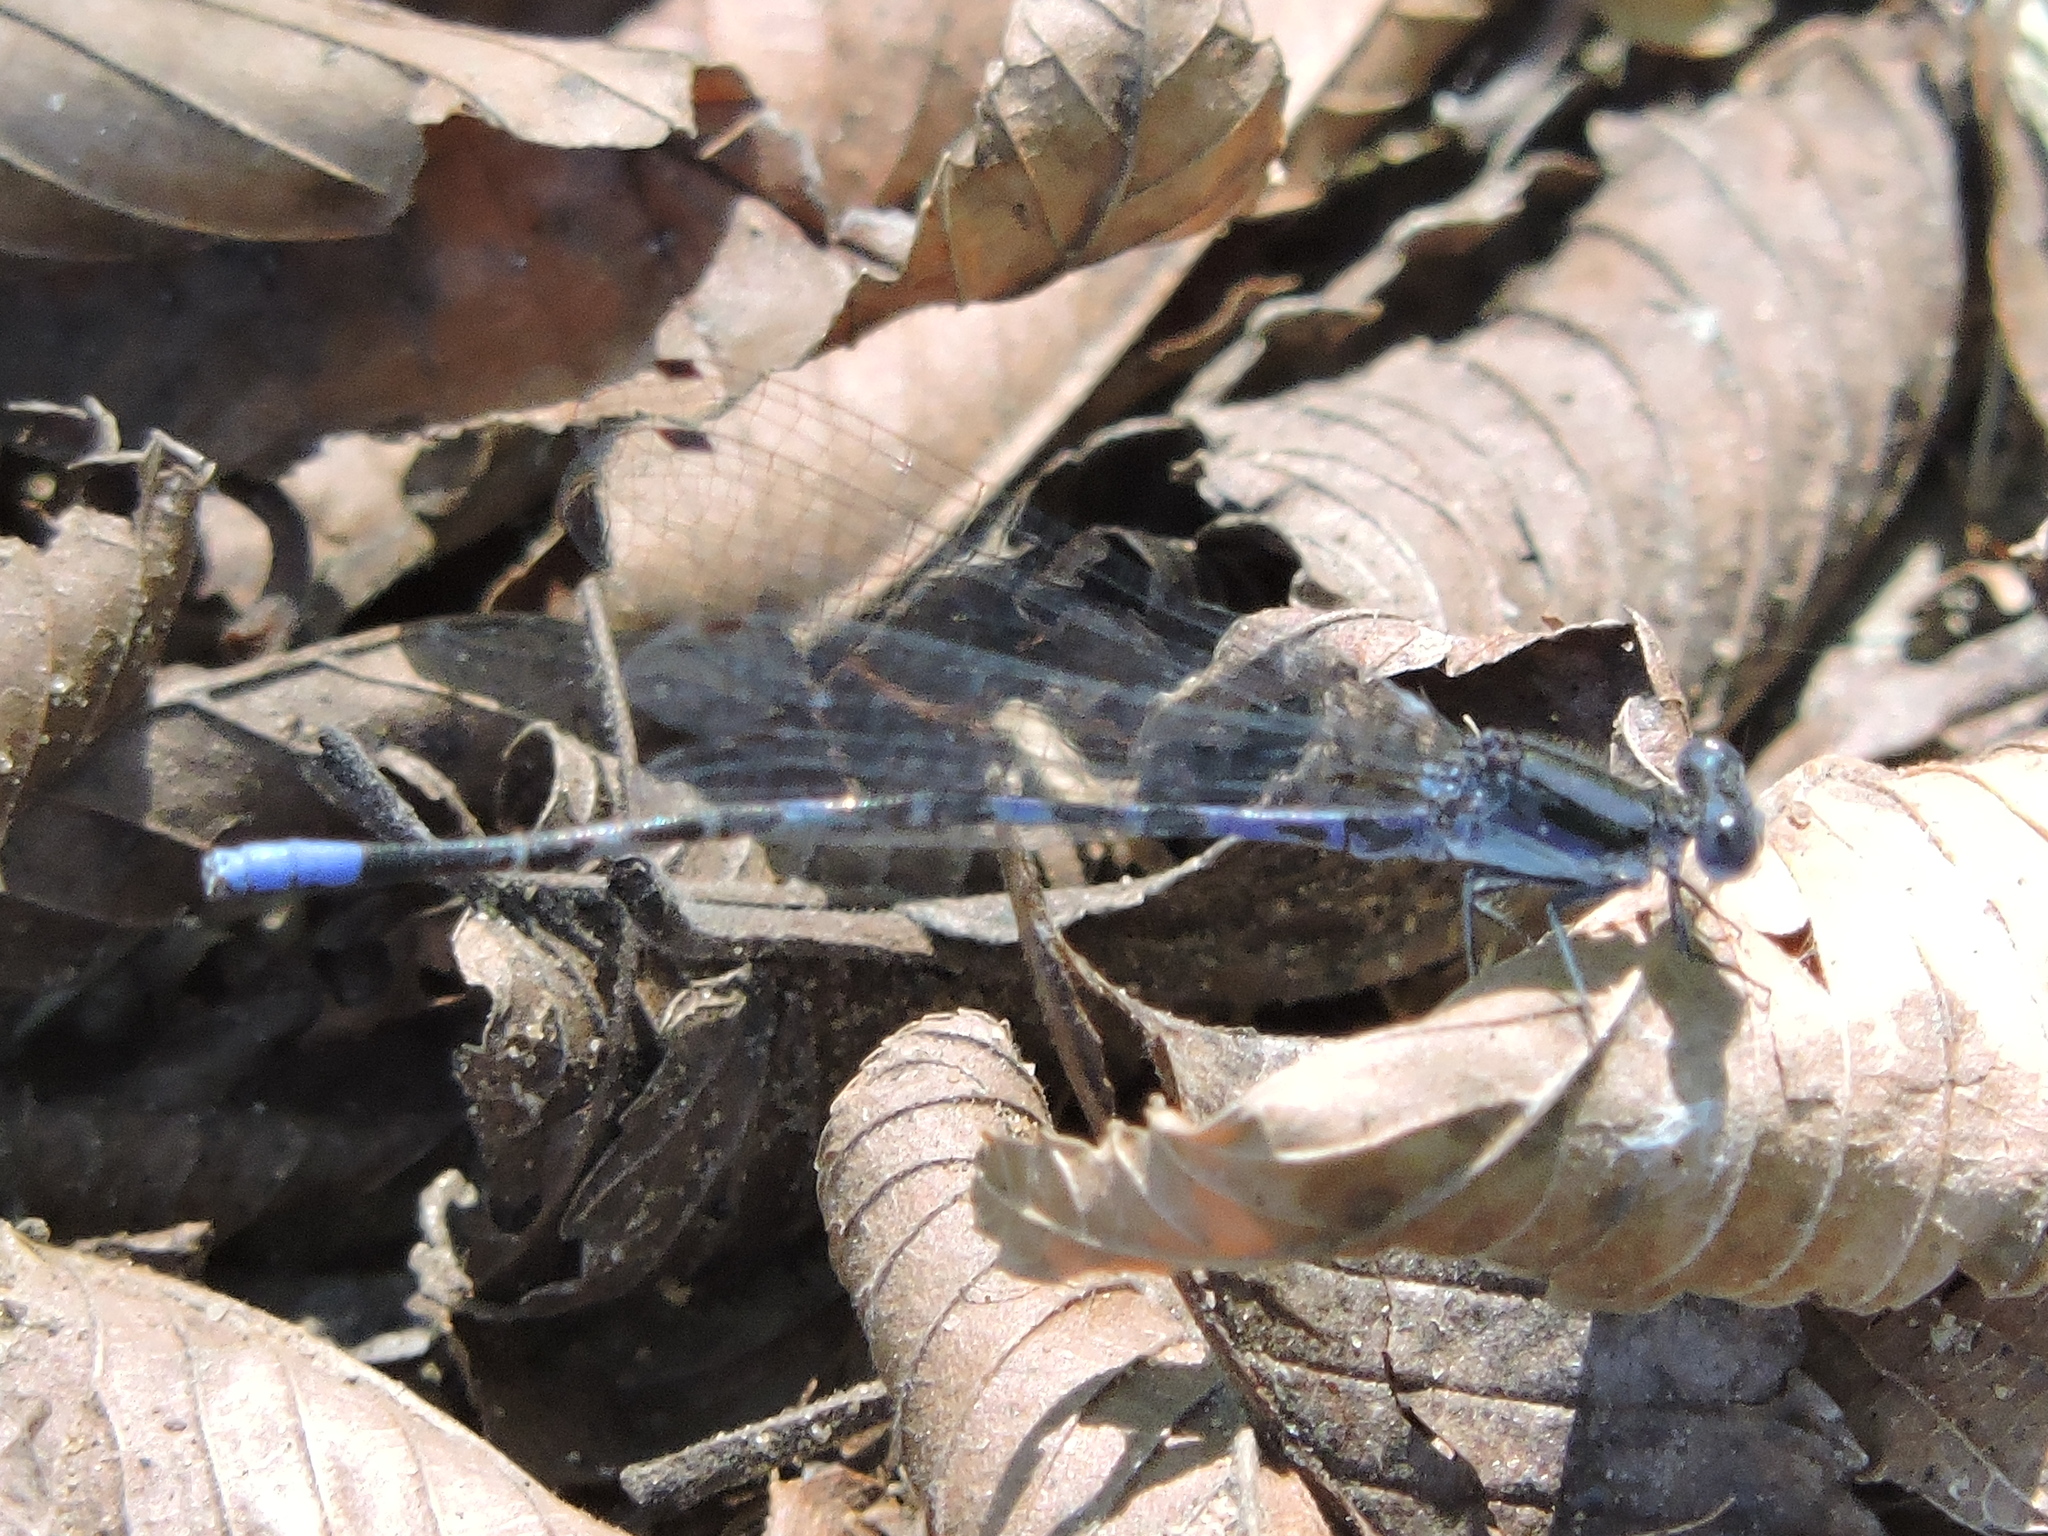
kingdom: Animalia
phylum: Arthropoda
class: Insecta
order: Odonata
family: Coenagrionidae
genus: Argia
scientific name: Argia immunda
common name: Kiowa dancer
